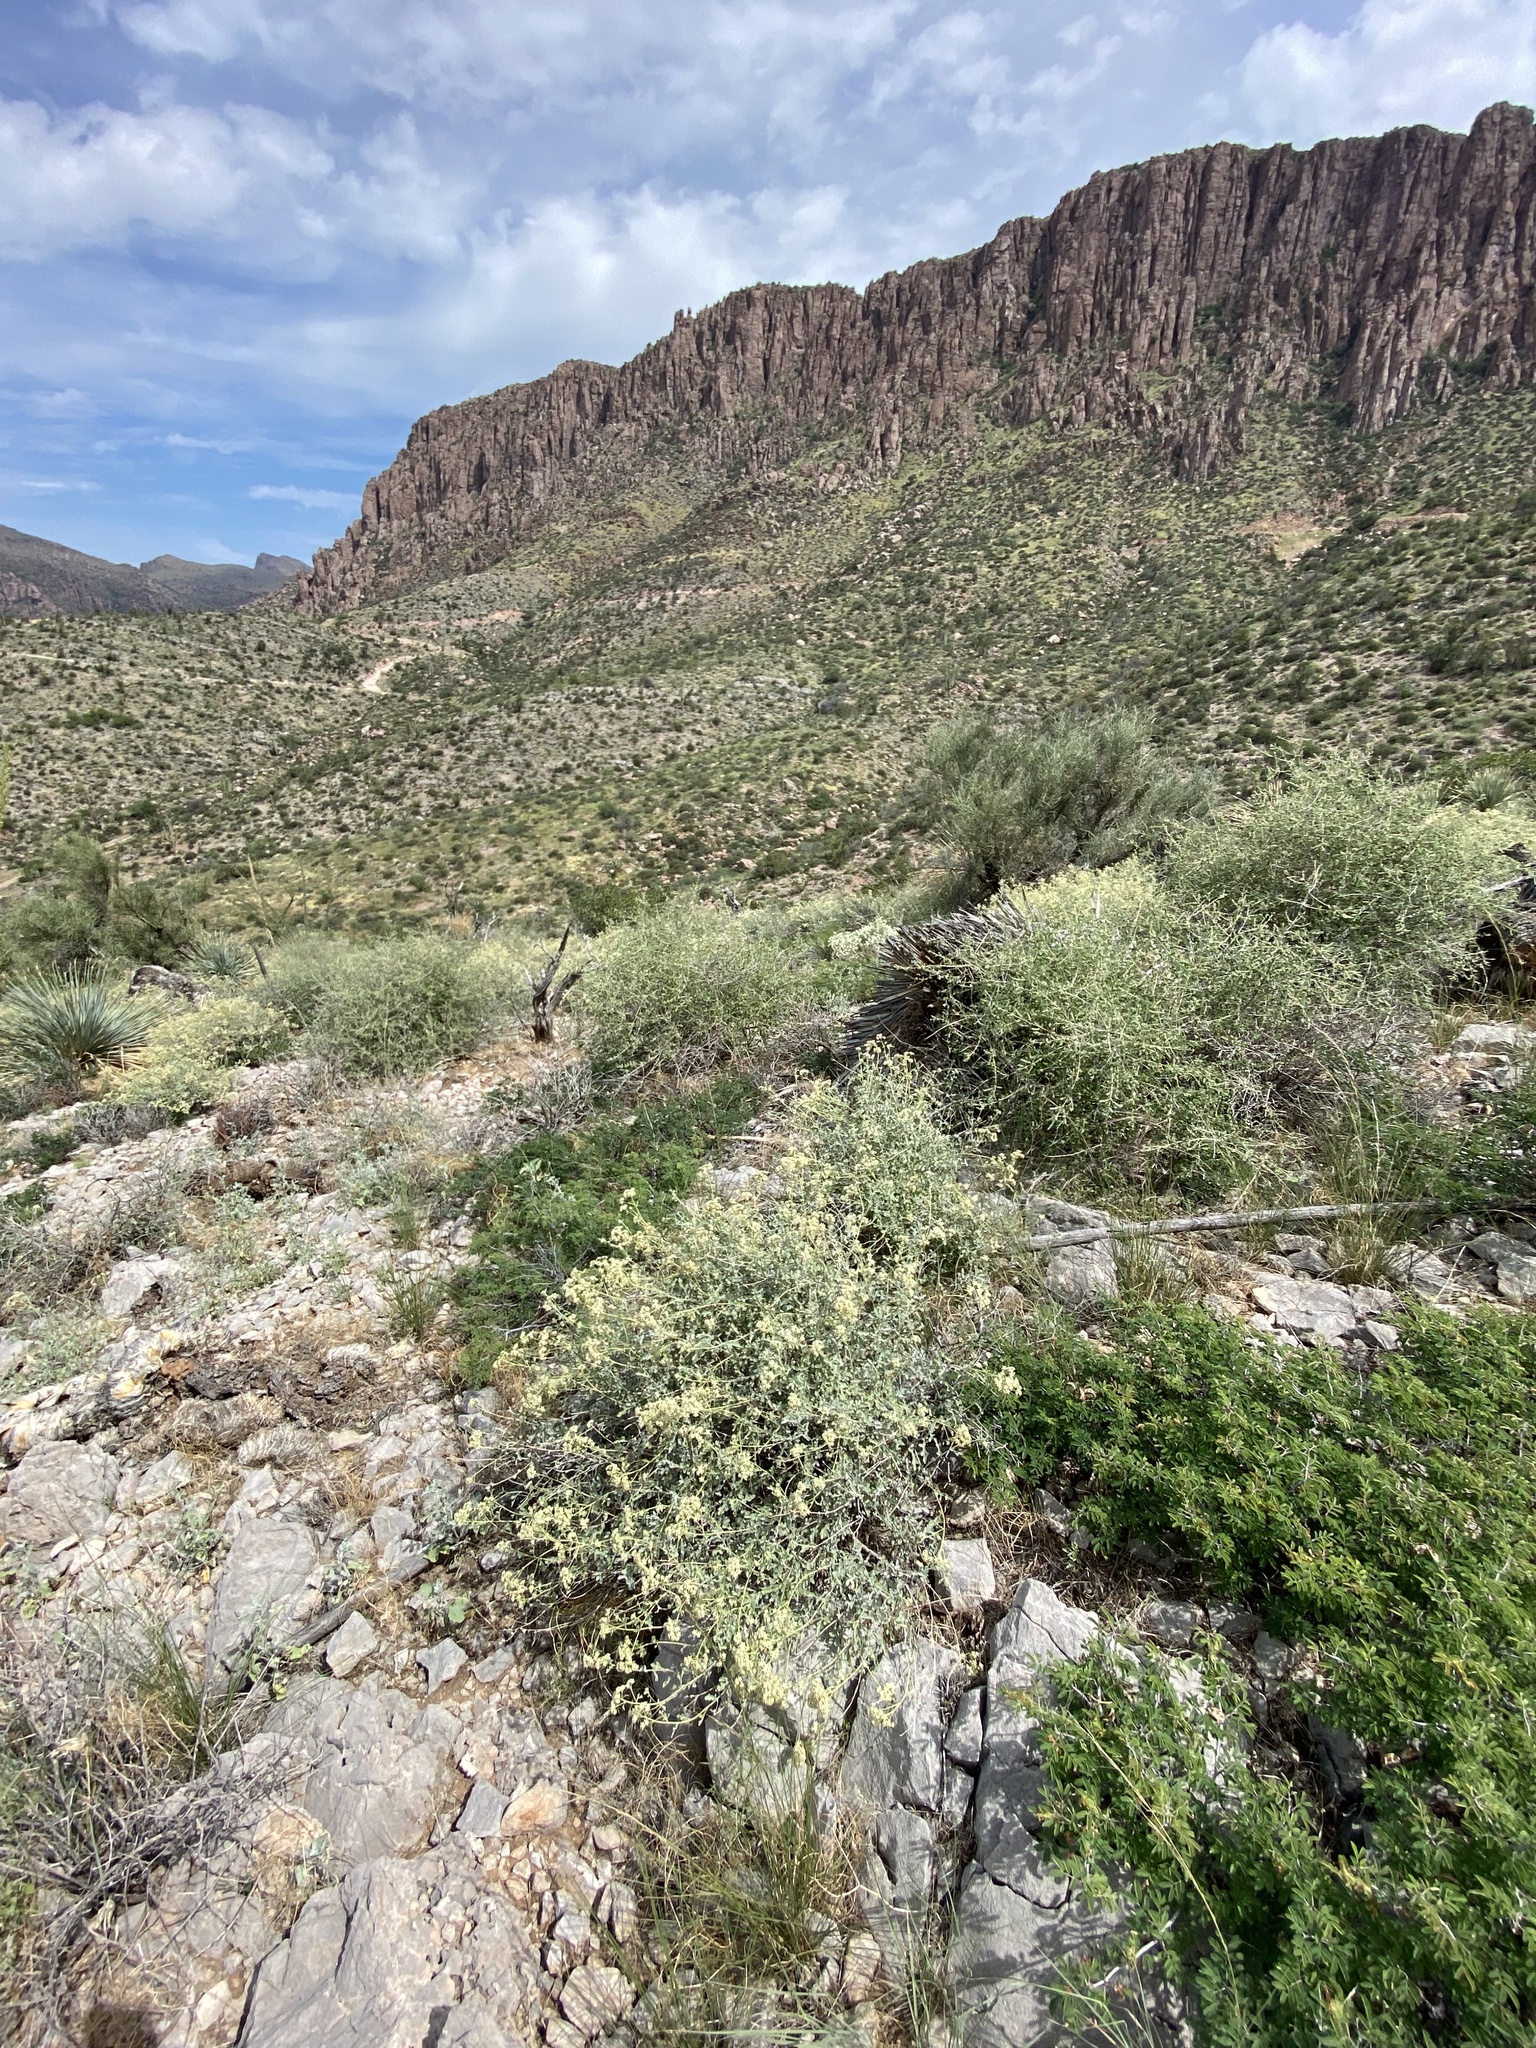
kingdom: Plantae
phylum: Tracheophyta
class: Magnoliopsida
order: Asterales
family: Asteraceae
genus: Parthenium
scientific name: Parthenium incanum
